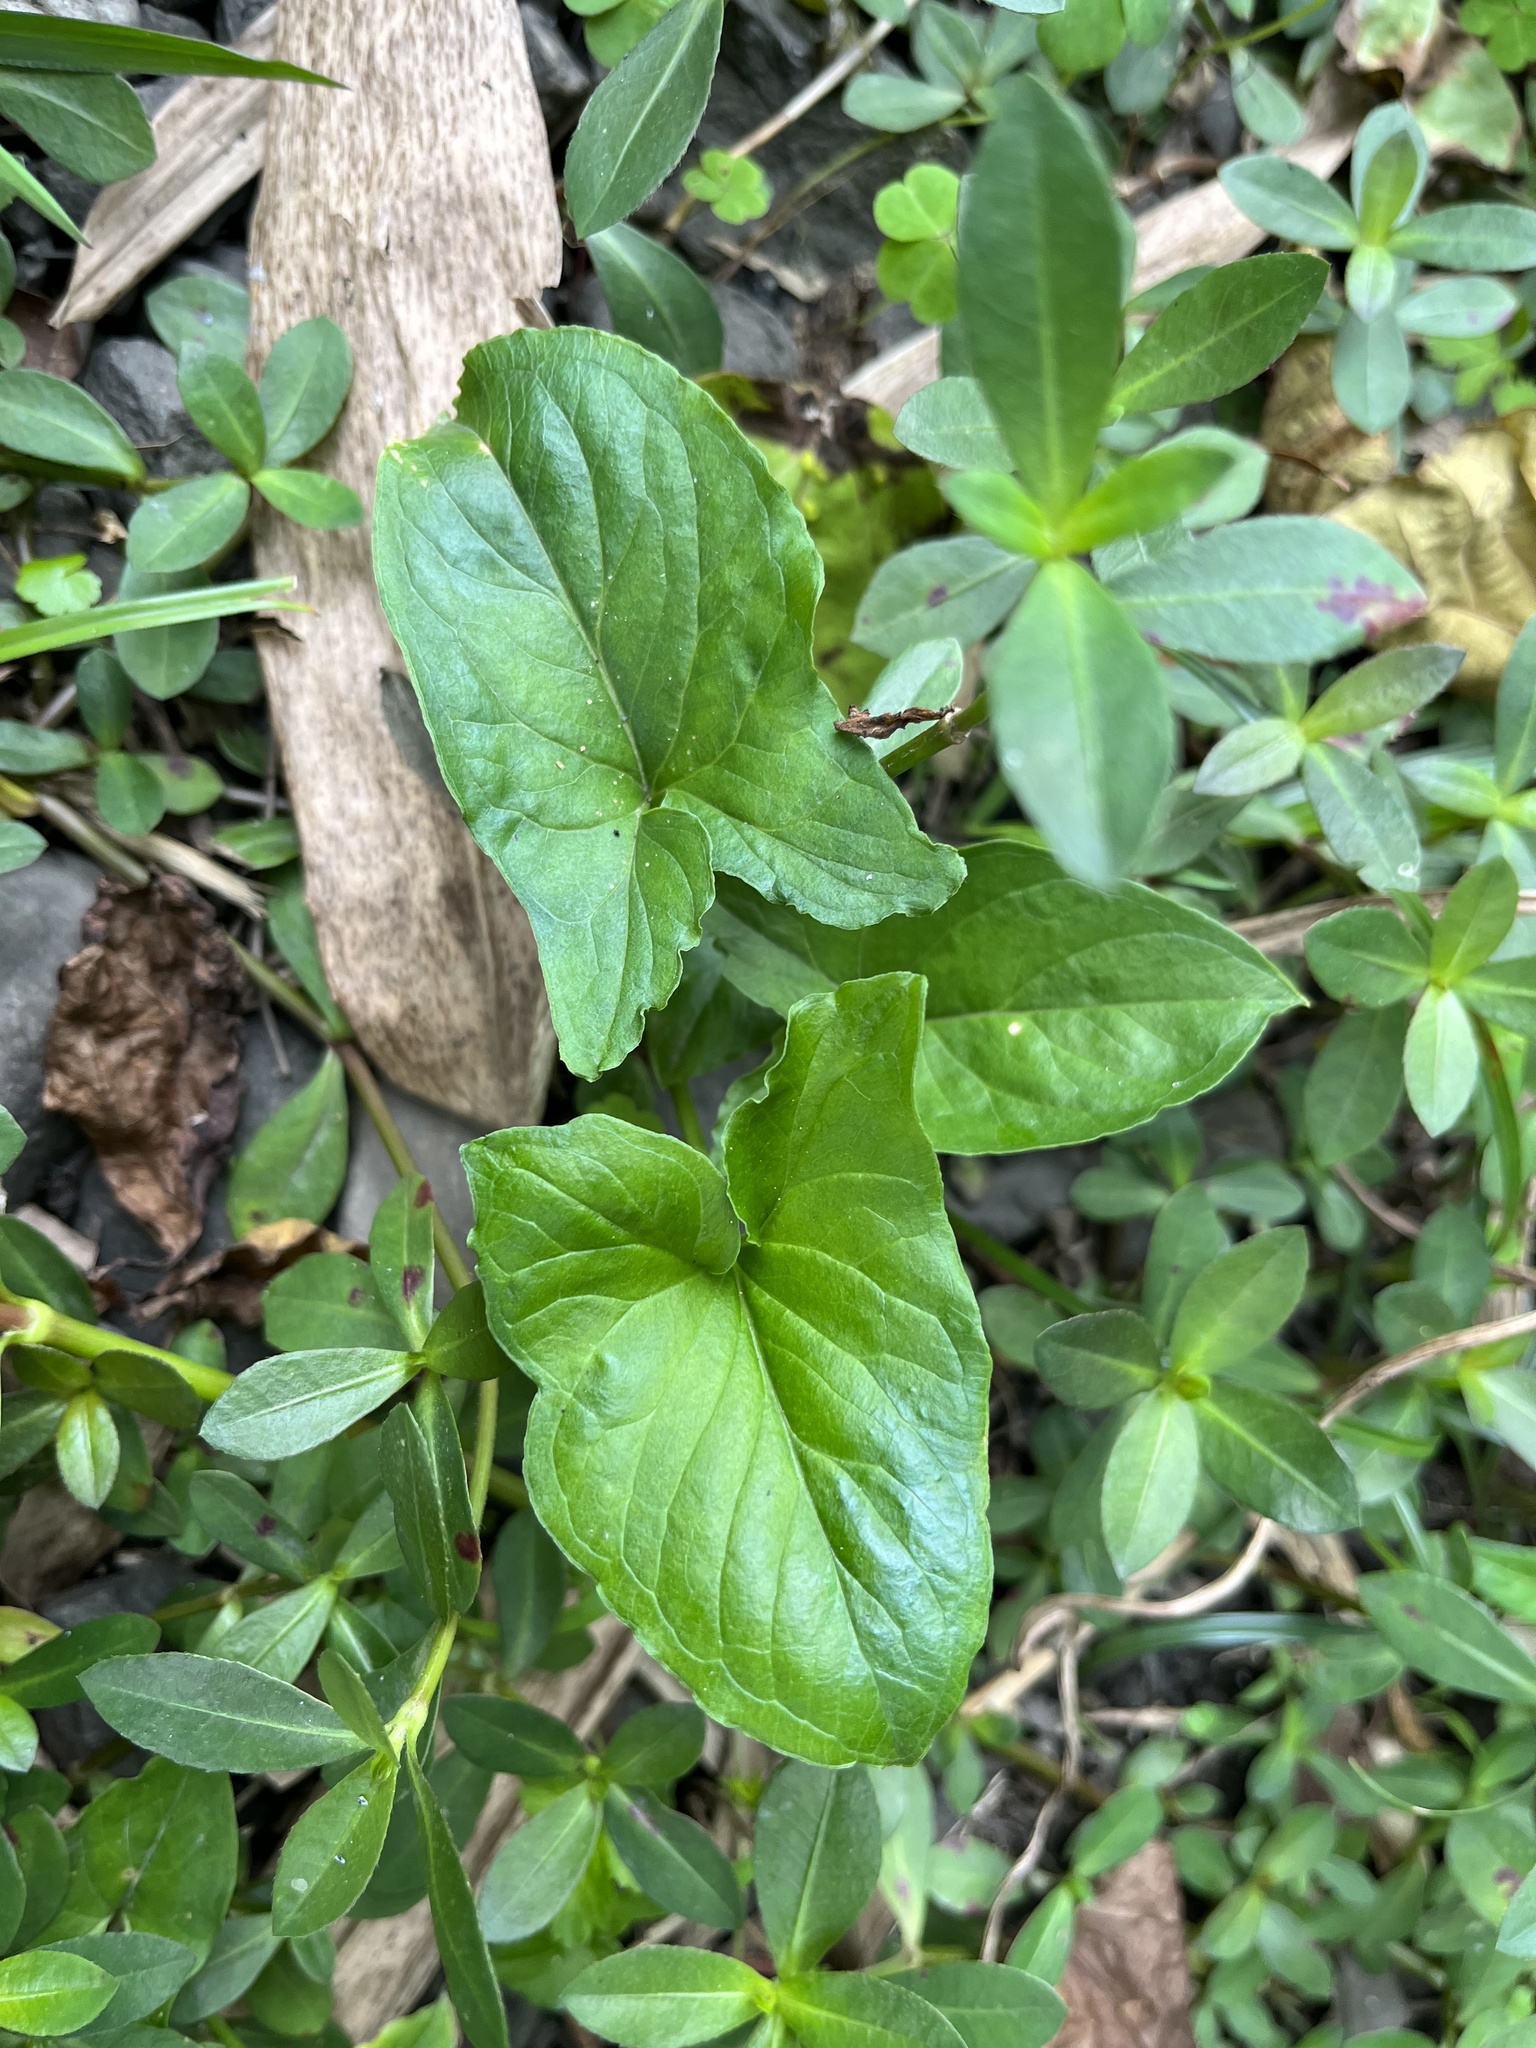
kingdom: Plantae
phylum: Tracheophyta
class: Liliopsida
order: Alismatales
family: Araceae
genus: Typhonium
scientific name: Typhonium blumei
